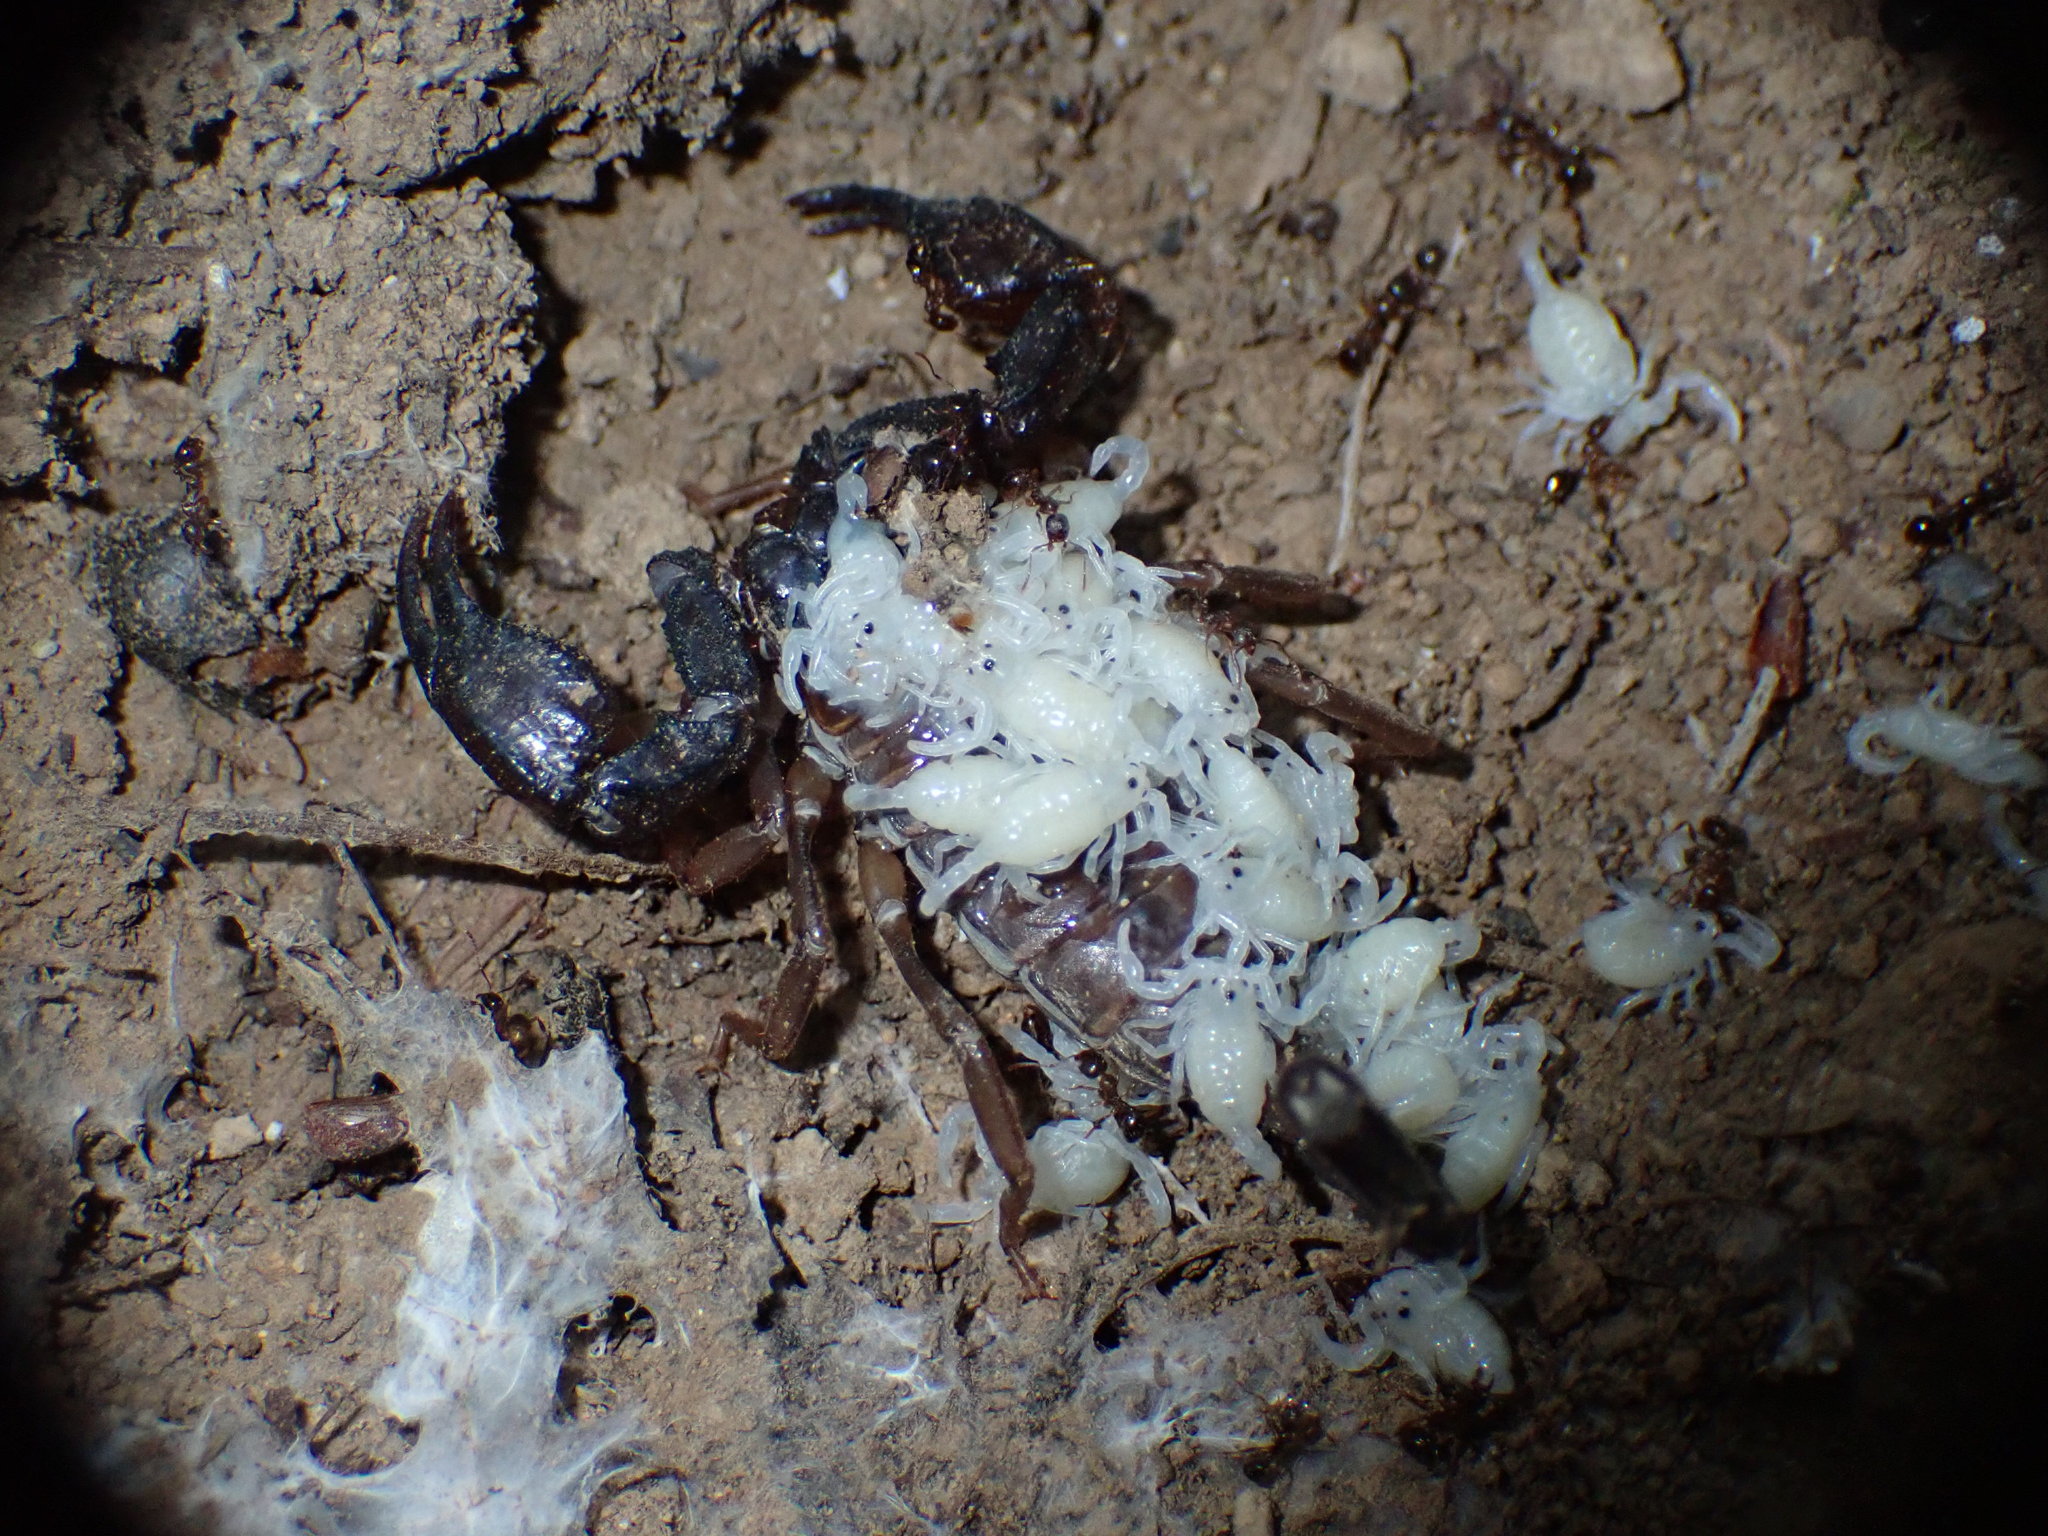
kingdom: Animalia
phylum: Arthropoda
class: Arachnida
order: Scorpiones
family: Chactidae
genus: Uroctonus
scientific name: Uroctonus mordax
